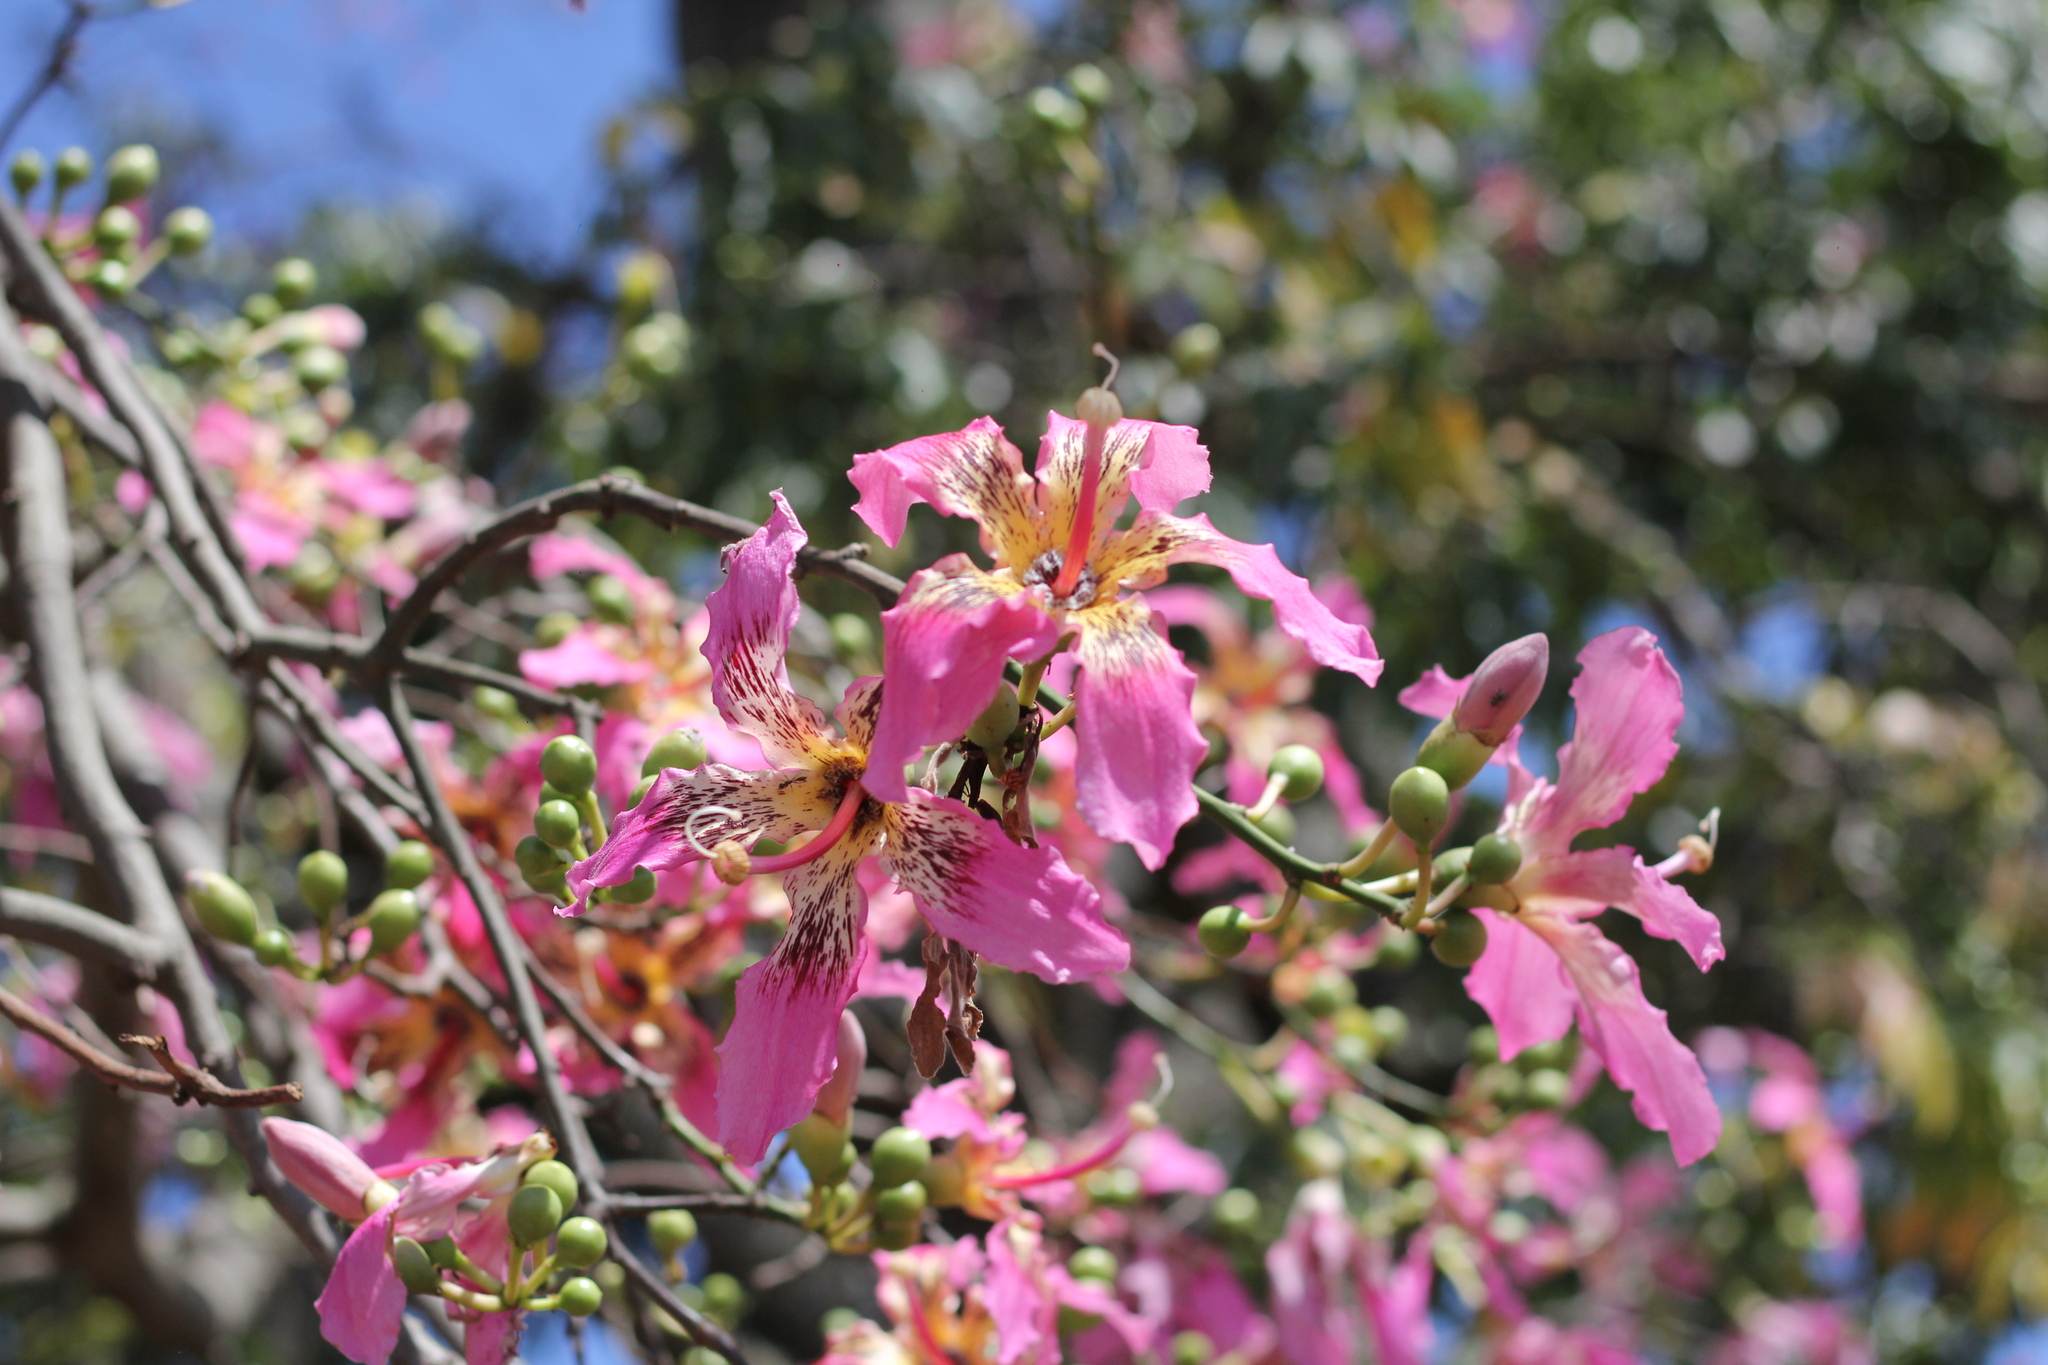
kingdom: Plantae
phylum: Tracheophyta
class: Magnoliopsida
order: Malvales
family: Malvaceae
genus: Ceiba
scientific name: Ceiba speciosa
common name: Silk-floss tree
